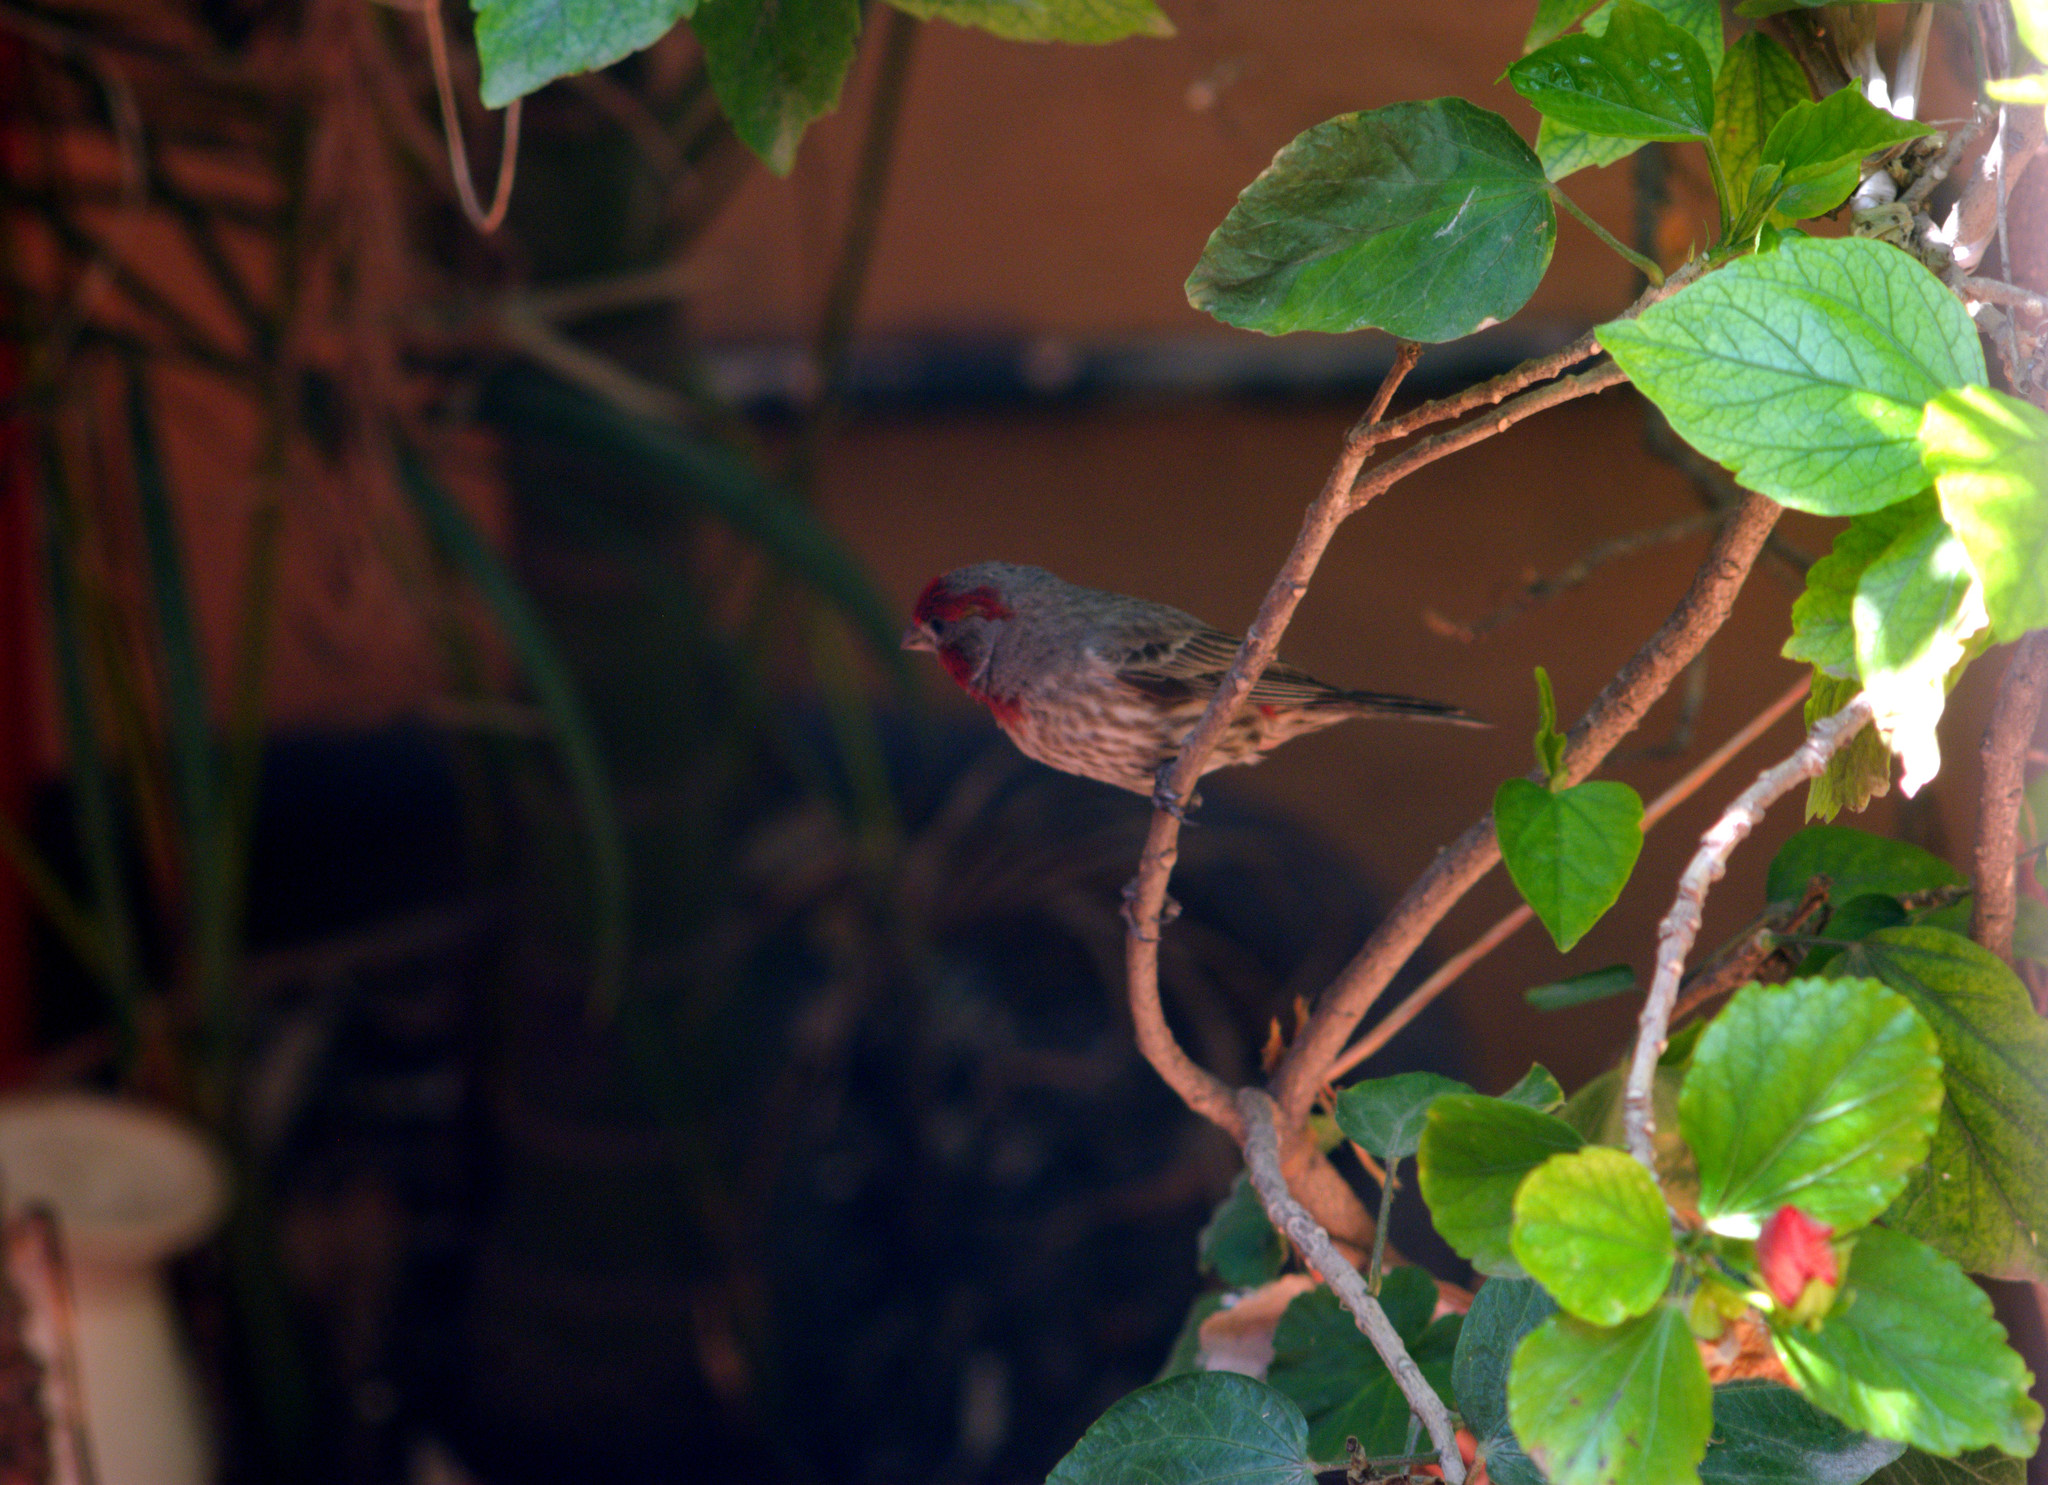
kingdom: Animalia
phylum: Chordata
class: Aves
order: Passeriformes
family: Fringillidae
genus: Haemorhous
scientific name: Haemorhous mexicanus
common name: House finch
